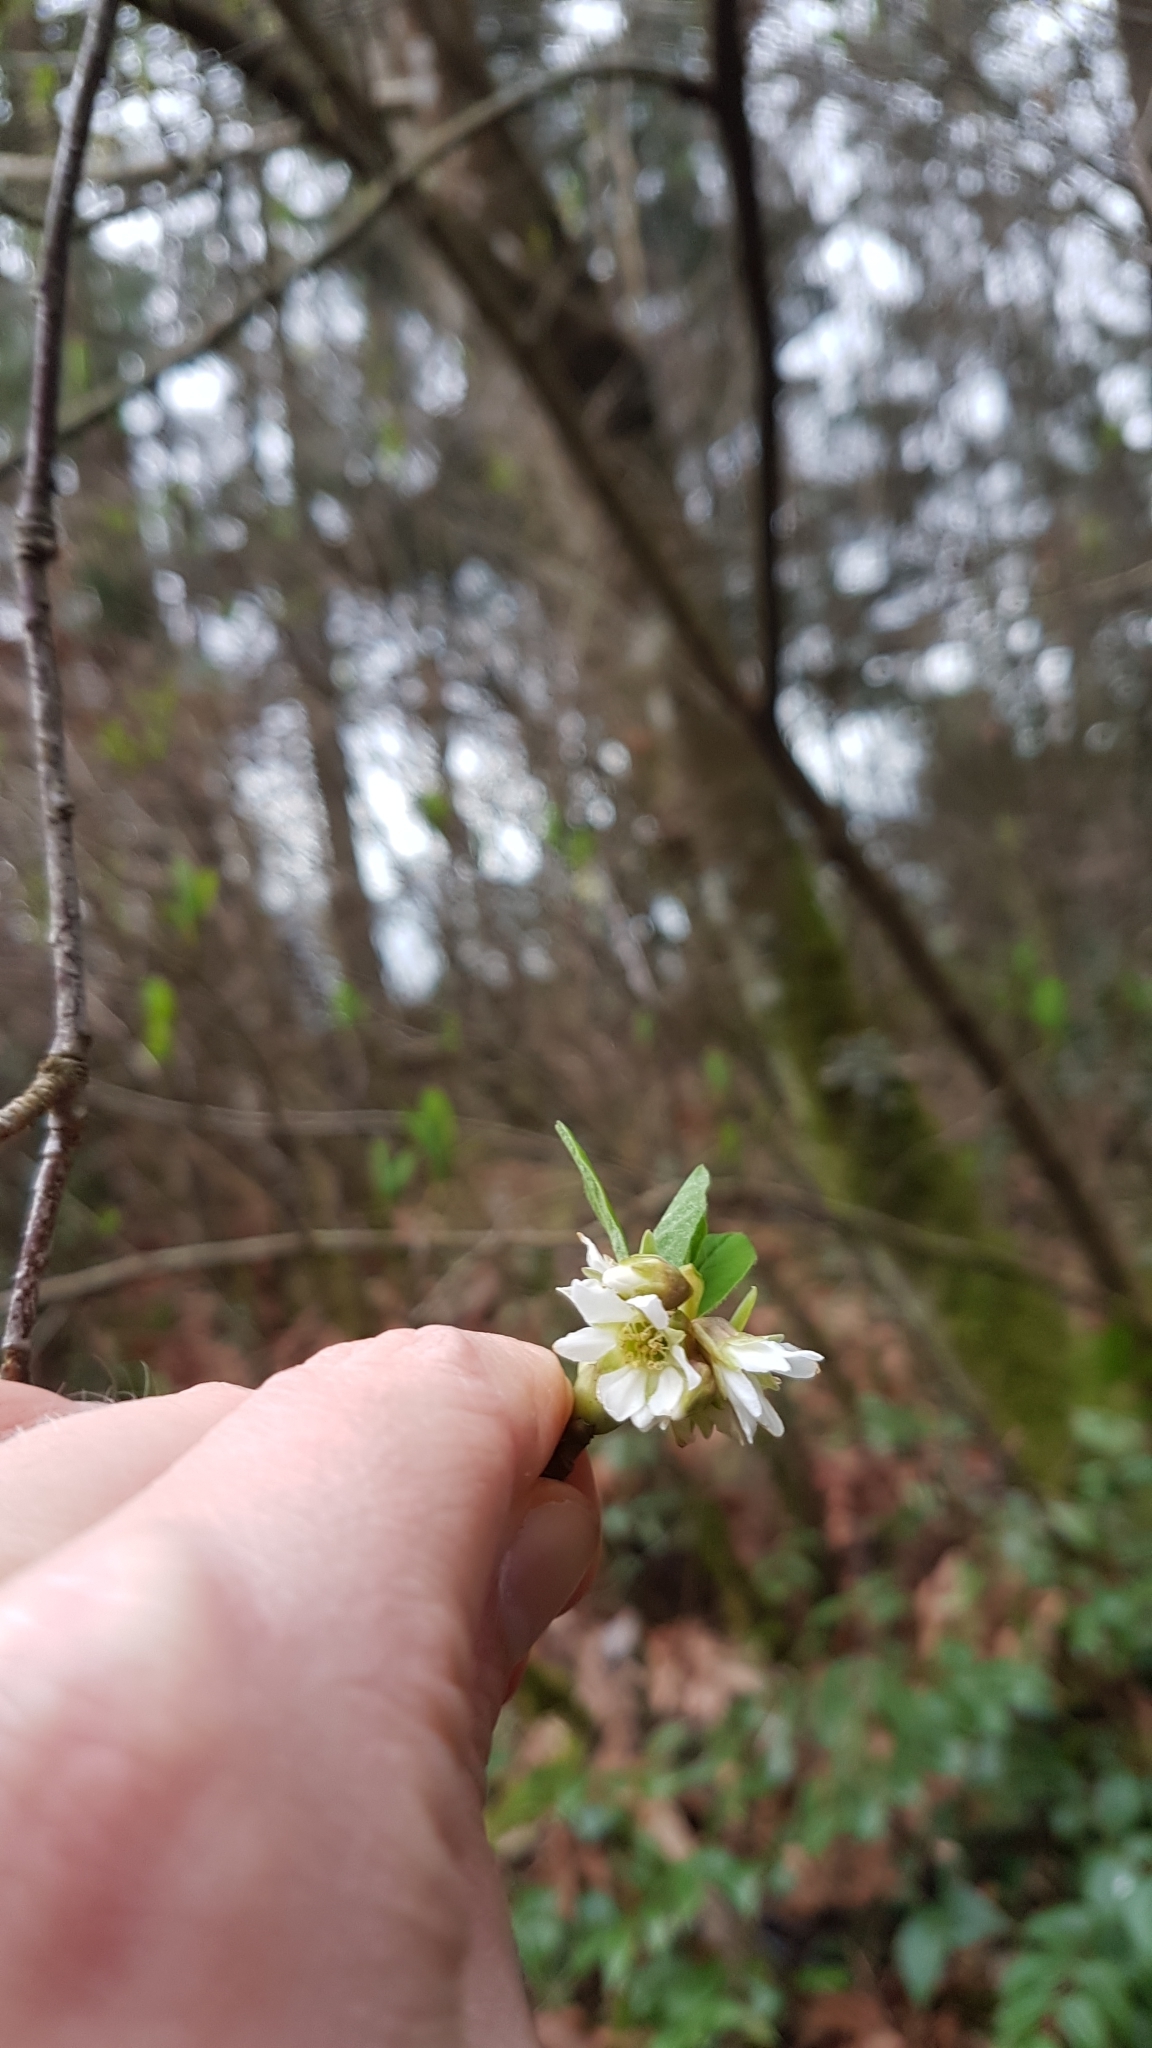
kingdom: Plantae
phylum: Tracheophyta
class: Magnoliopsida
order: Rosales
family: Rosaceae
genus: Oemleria
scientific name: Oemleria cerasiformis
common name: Osoberry
